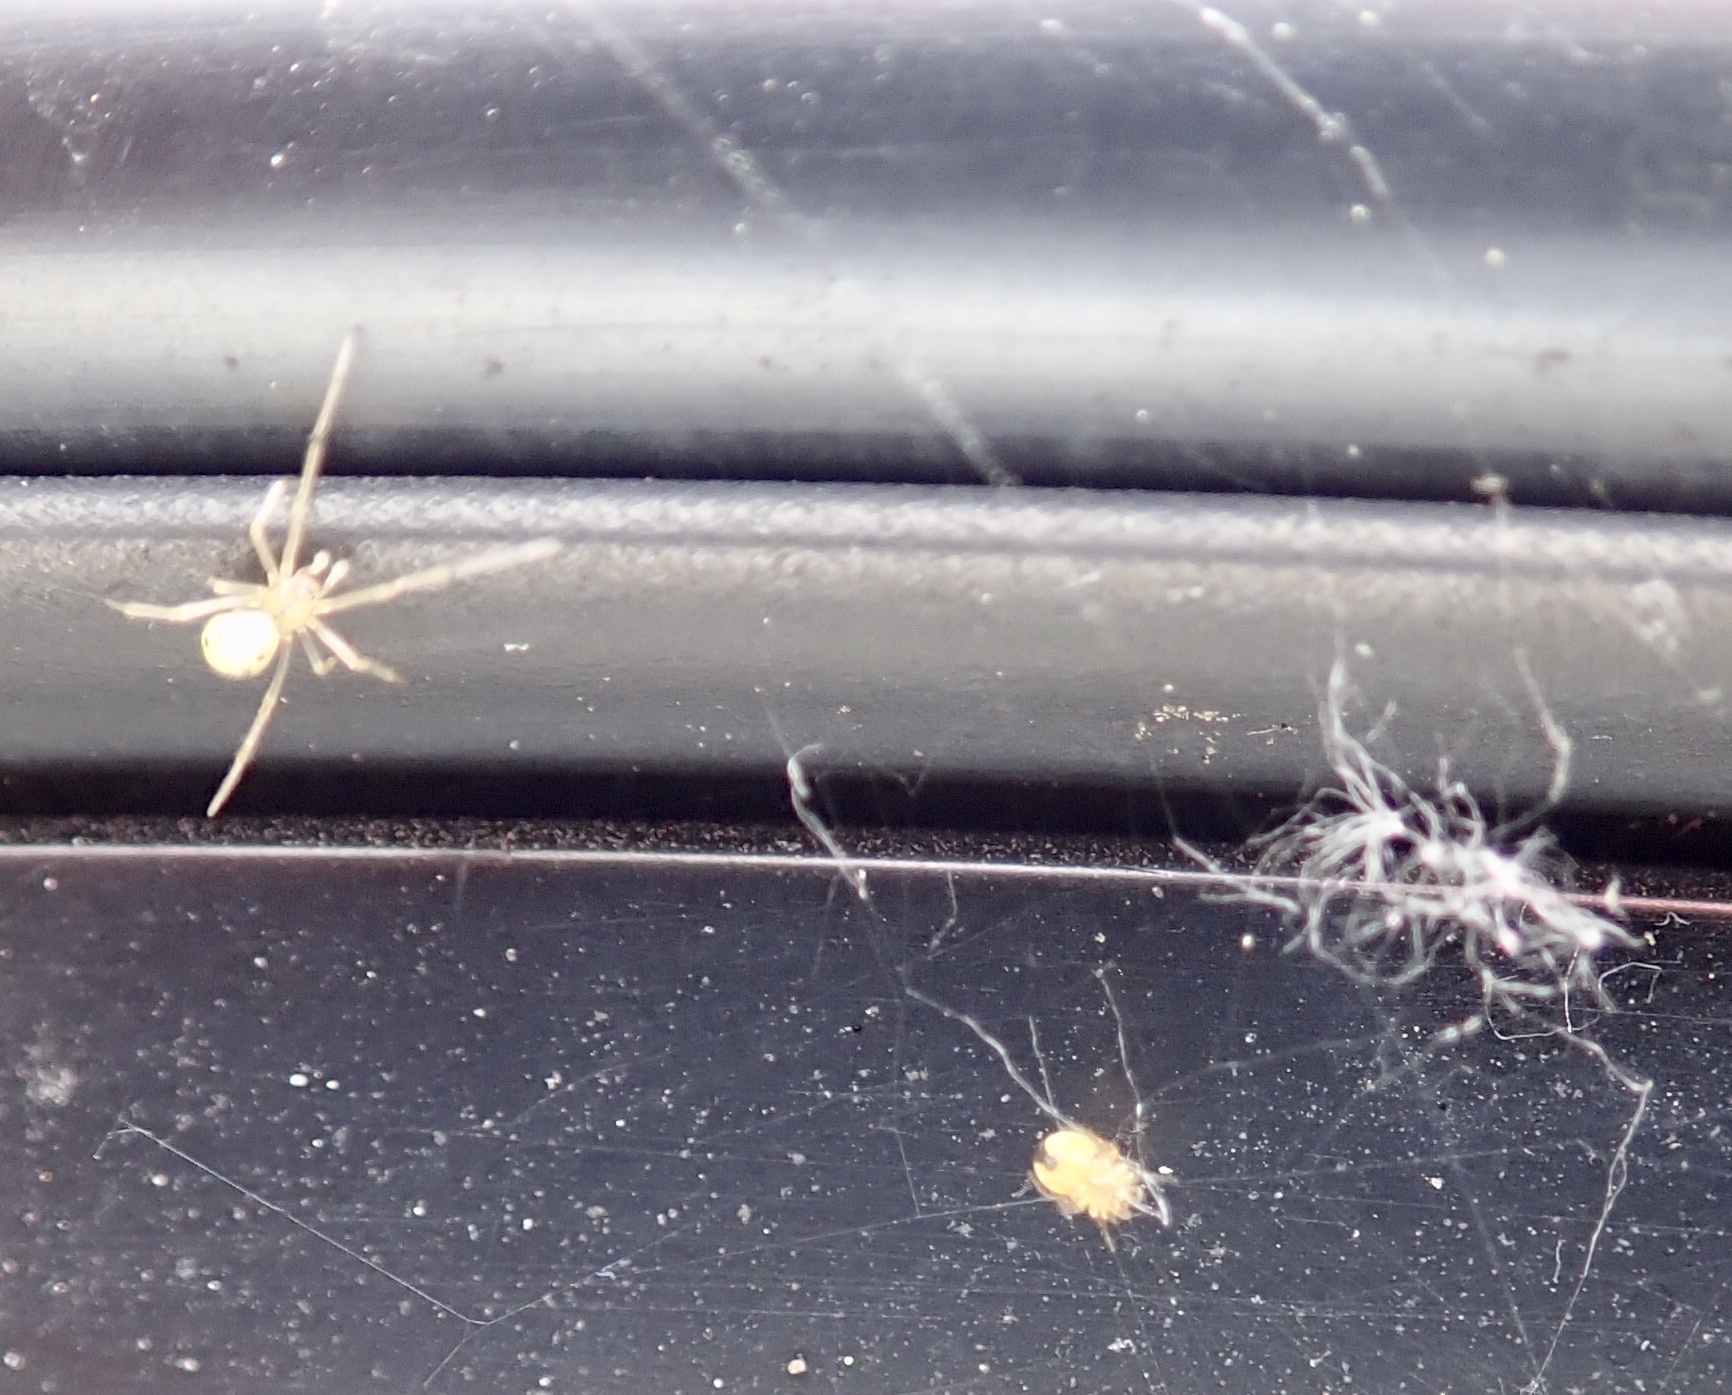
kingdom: Animalia
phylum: Arthropoda
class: Arachnida
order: Araneae
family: Theridiidae
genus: Enoplognatha
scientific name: Enoplognatha ovata
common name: Common candy-striped spider
